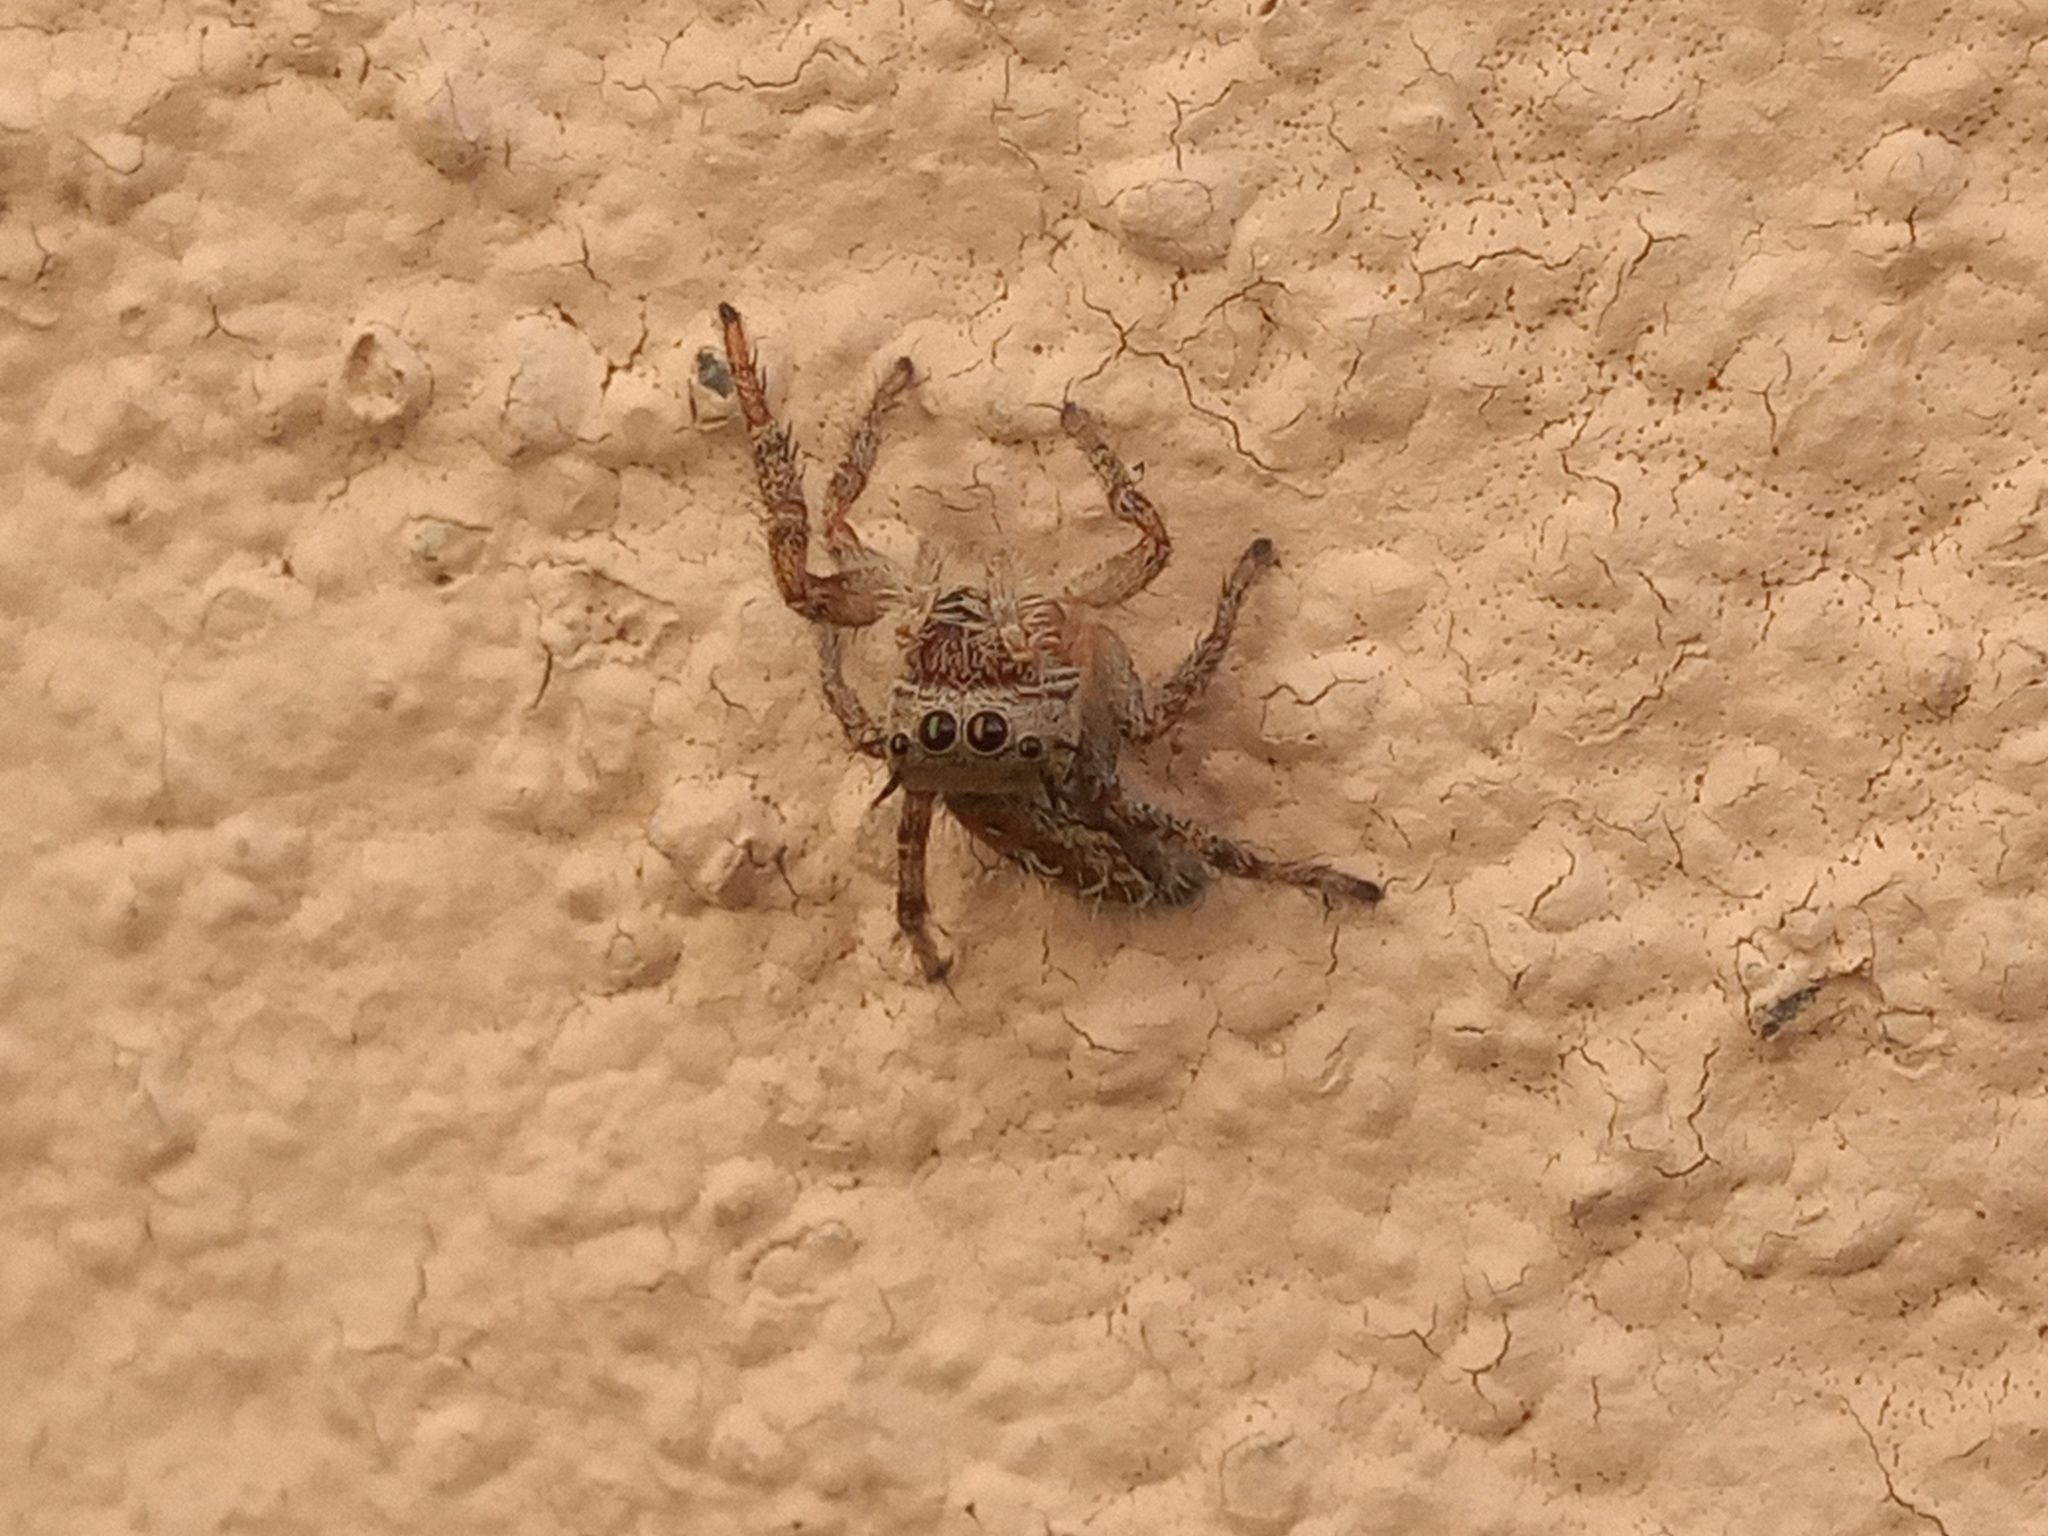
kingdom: Animalia
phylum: Arthropoda
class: Arachnida
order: Araneae
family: Salticidae
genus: Phidippus
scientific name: Phidippus arizonensis
